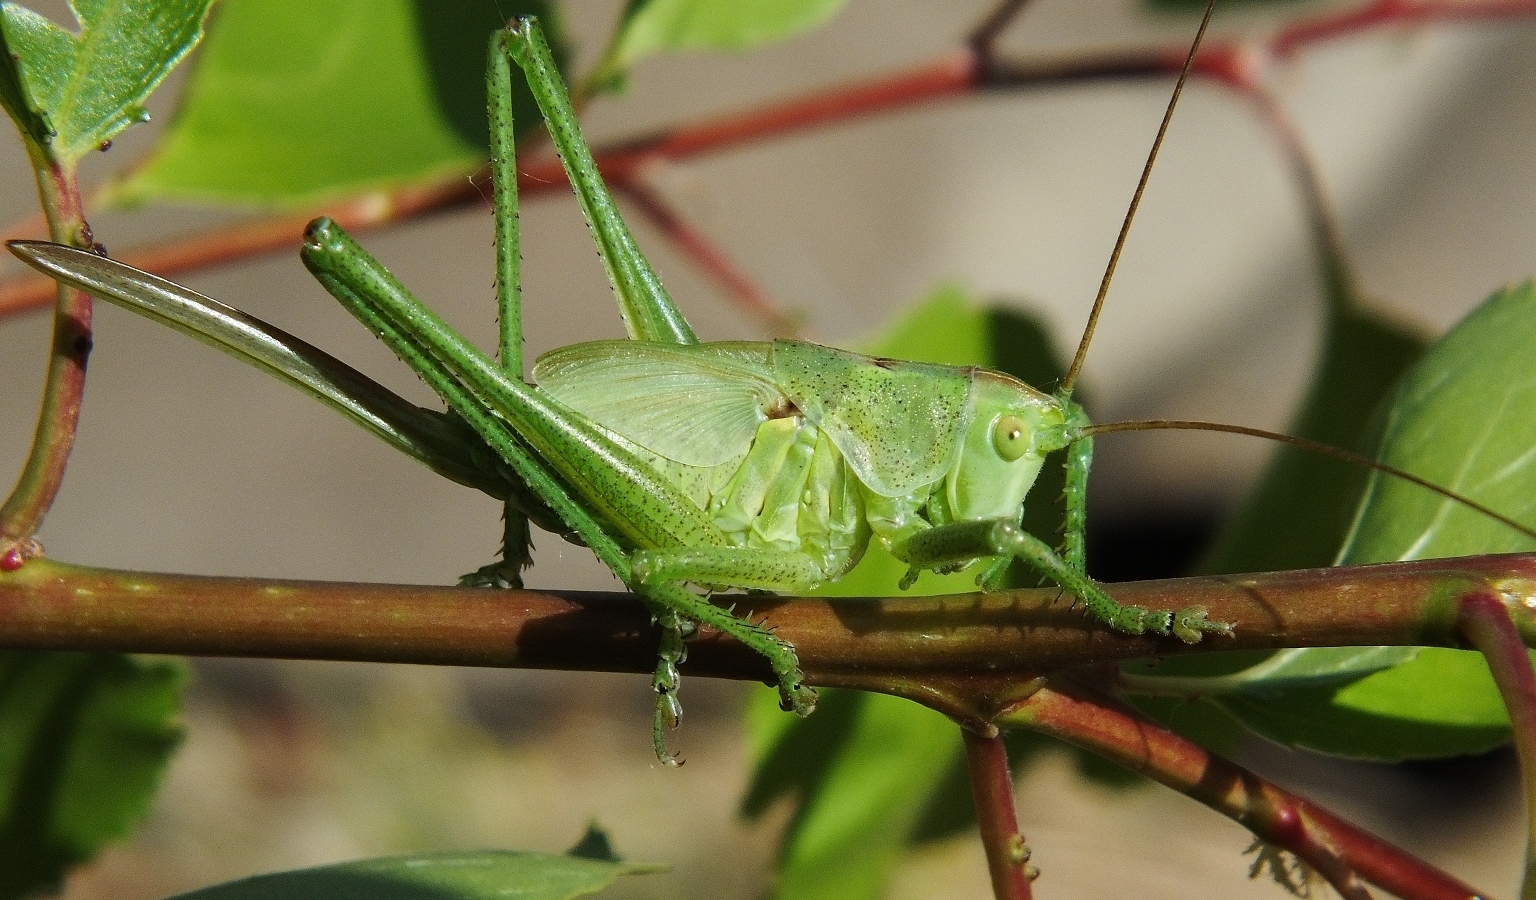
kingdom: Animalia
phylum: Arthropoda
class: Insecta
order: Orthoptera
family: Tettigoniidae
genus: Tettigonia
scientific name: Tettigonia viridissima
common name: Great green bush-cricket
